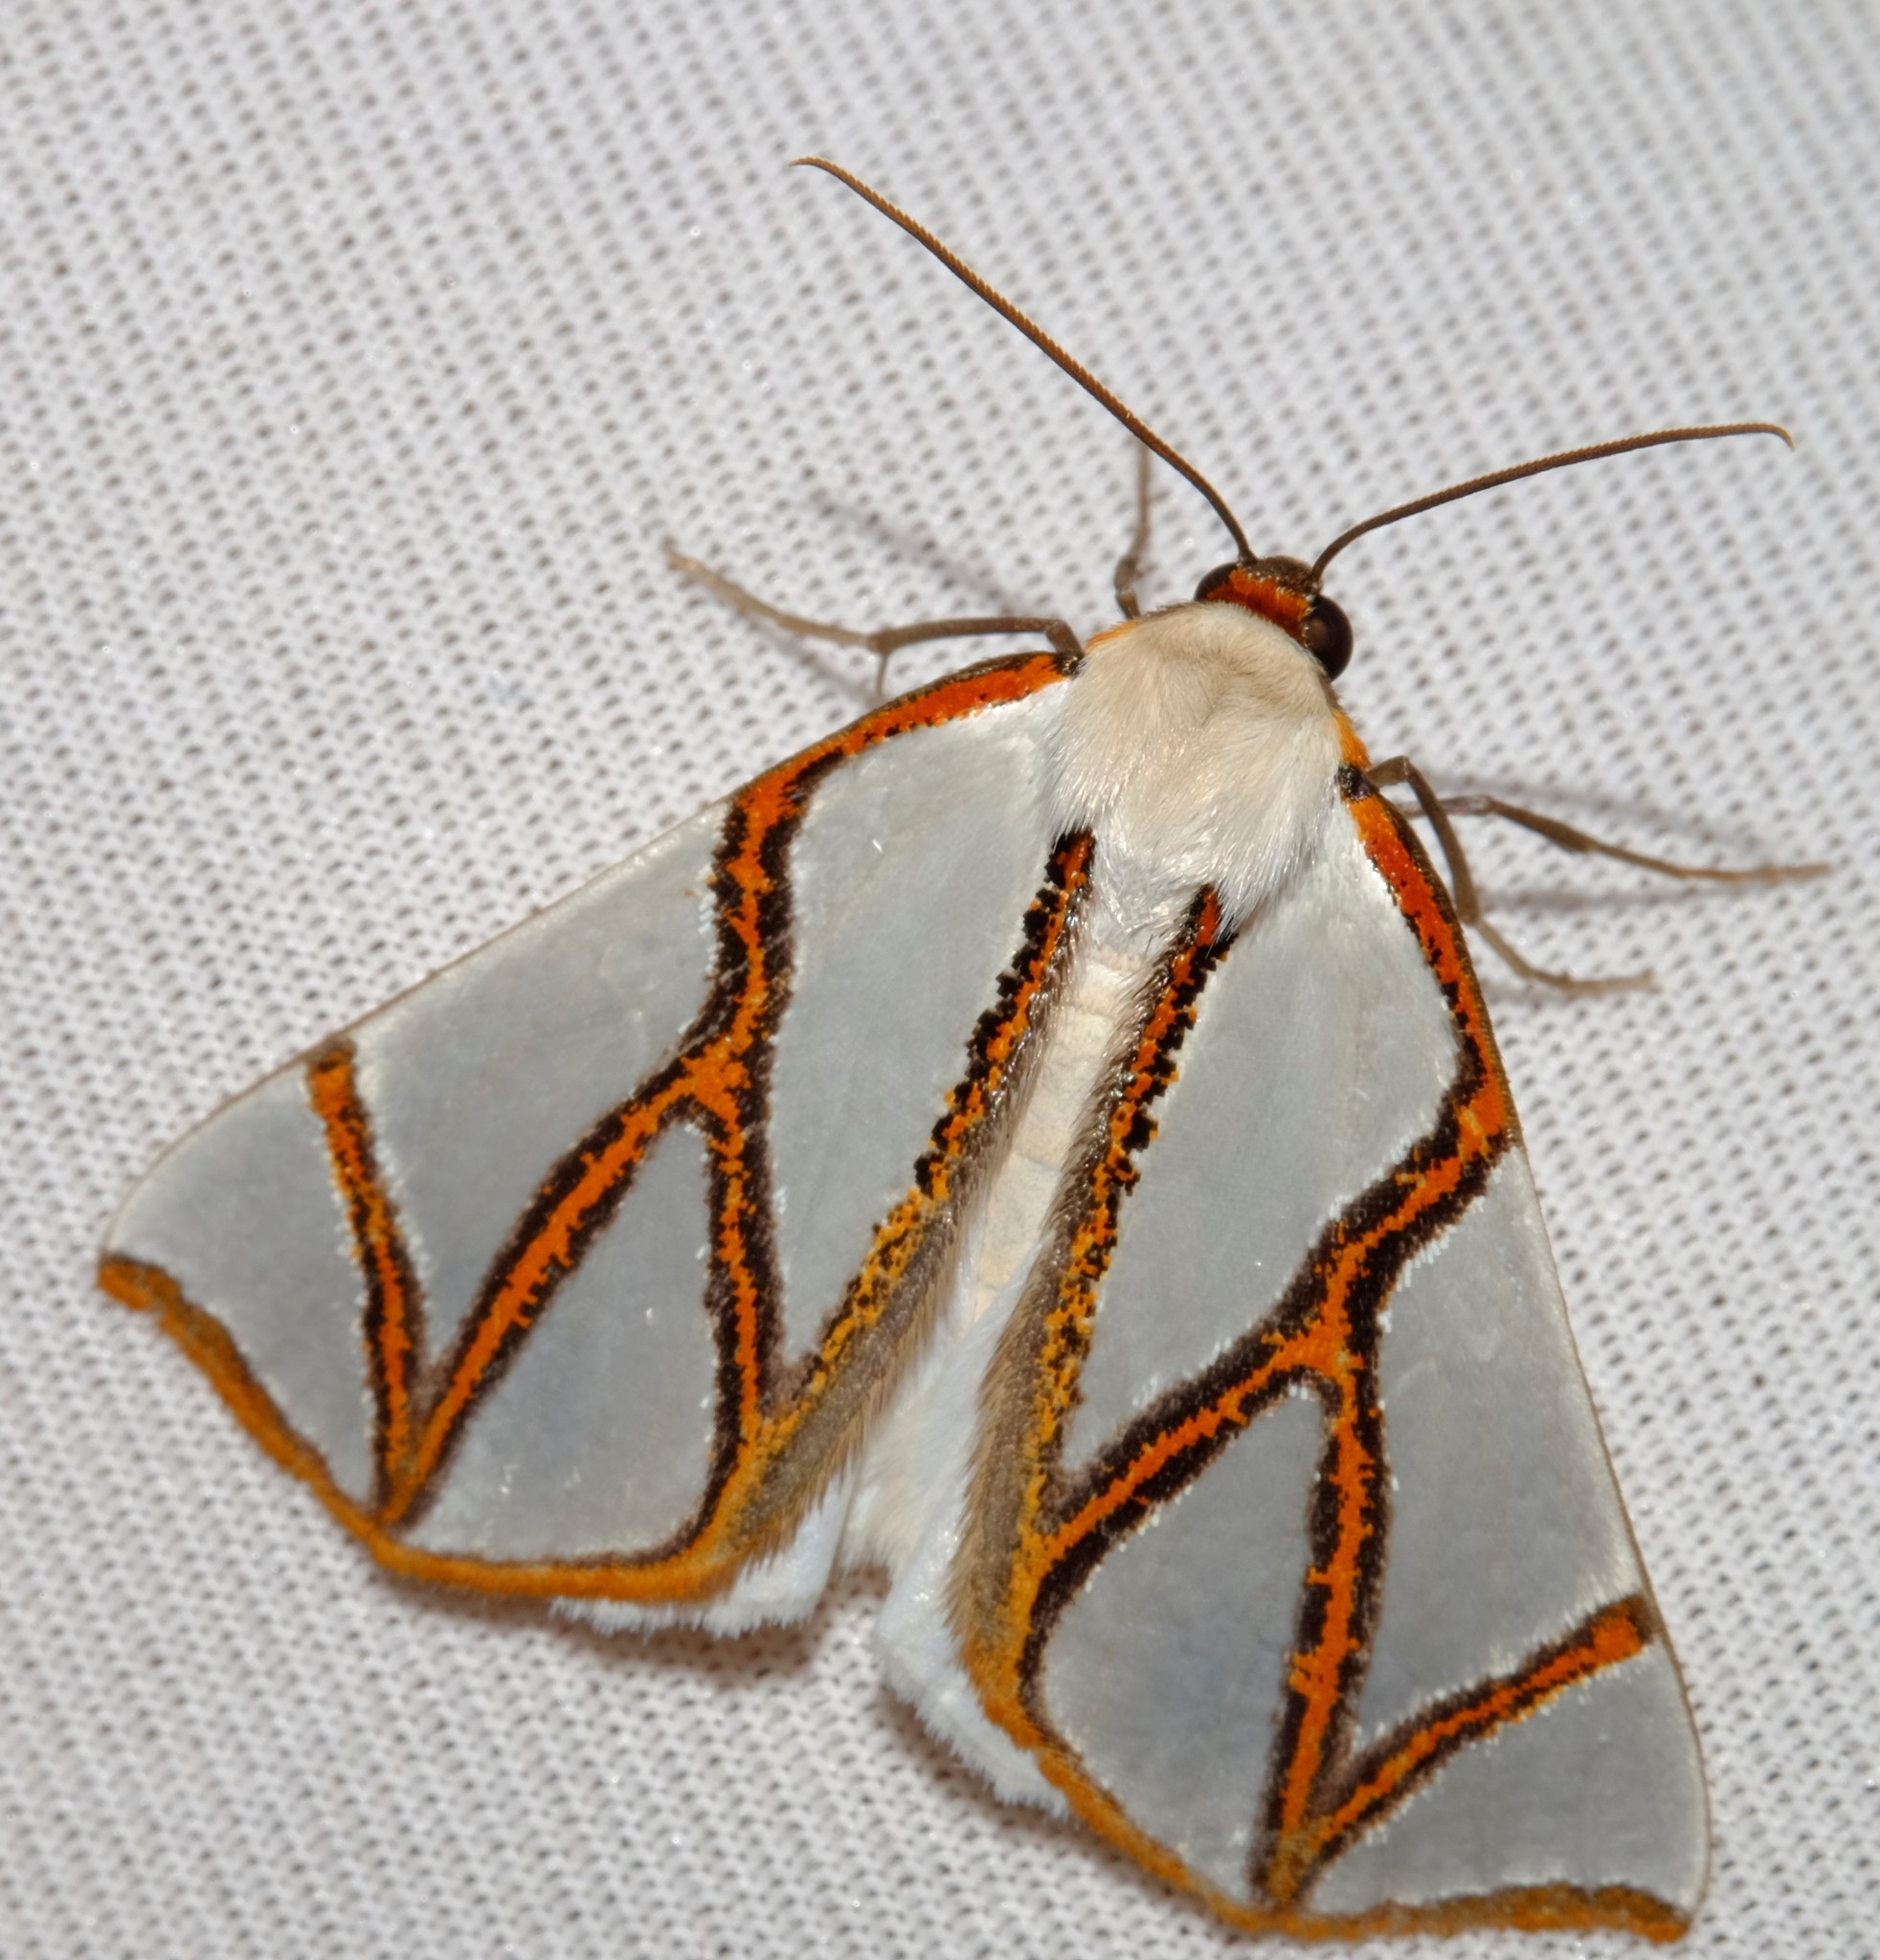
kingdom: Animalia
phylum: Arthropoda
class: Insecta
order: Lepidoptera
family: Geometridae
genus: Thalaina
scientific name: Thalaina clara
